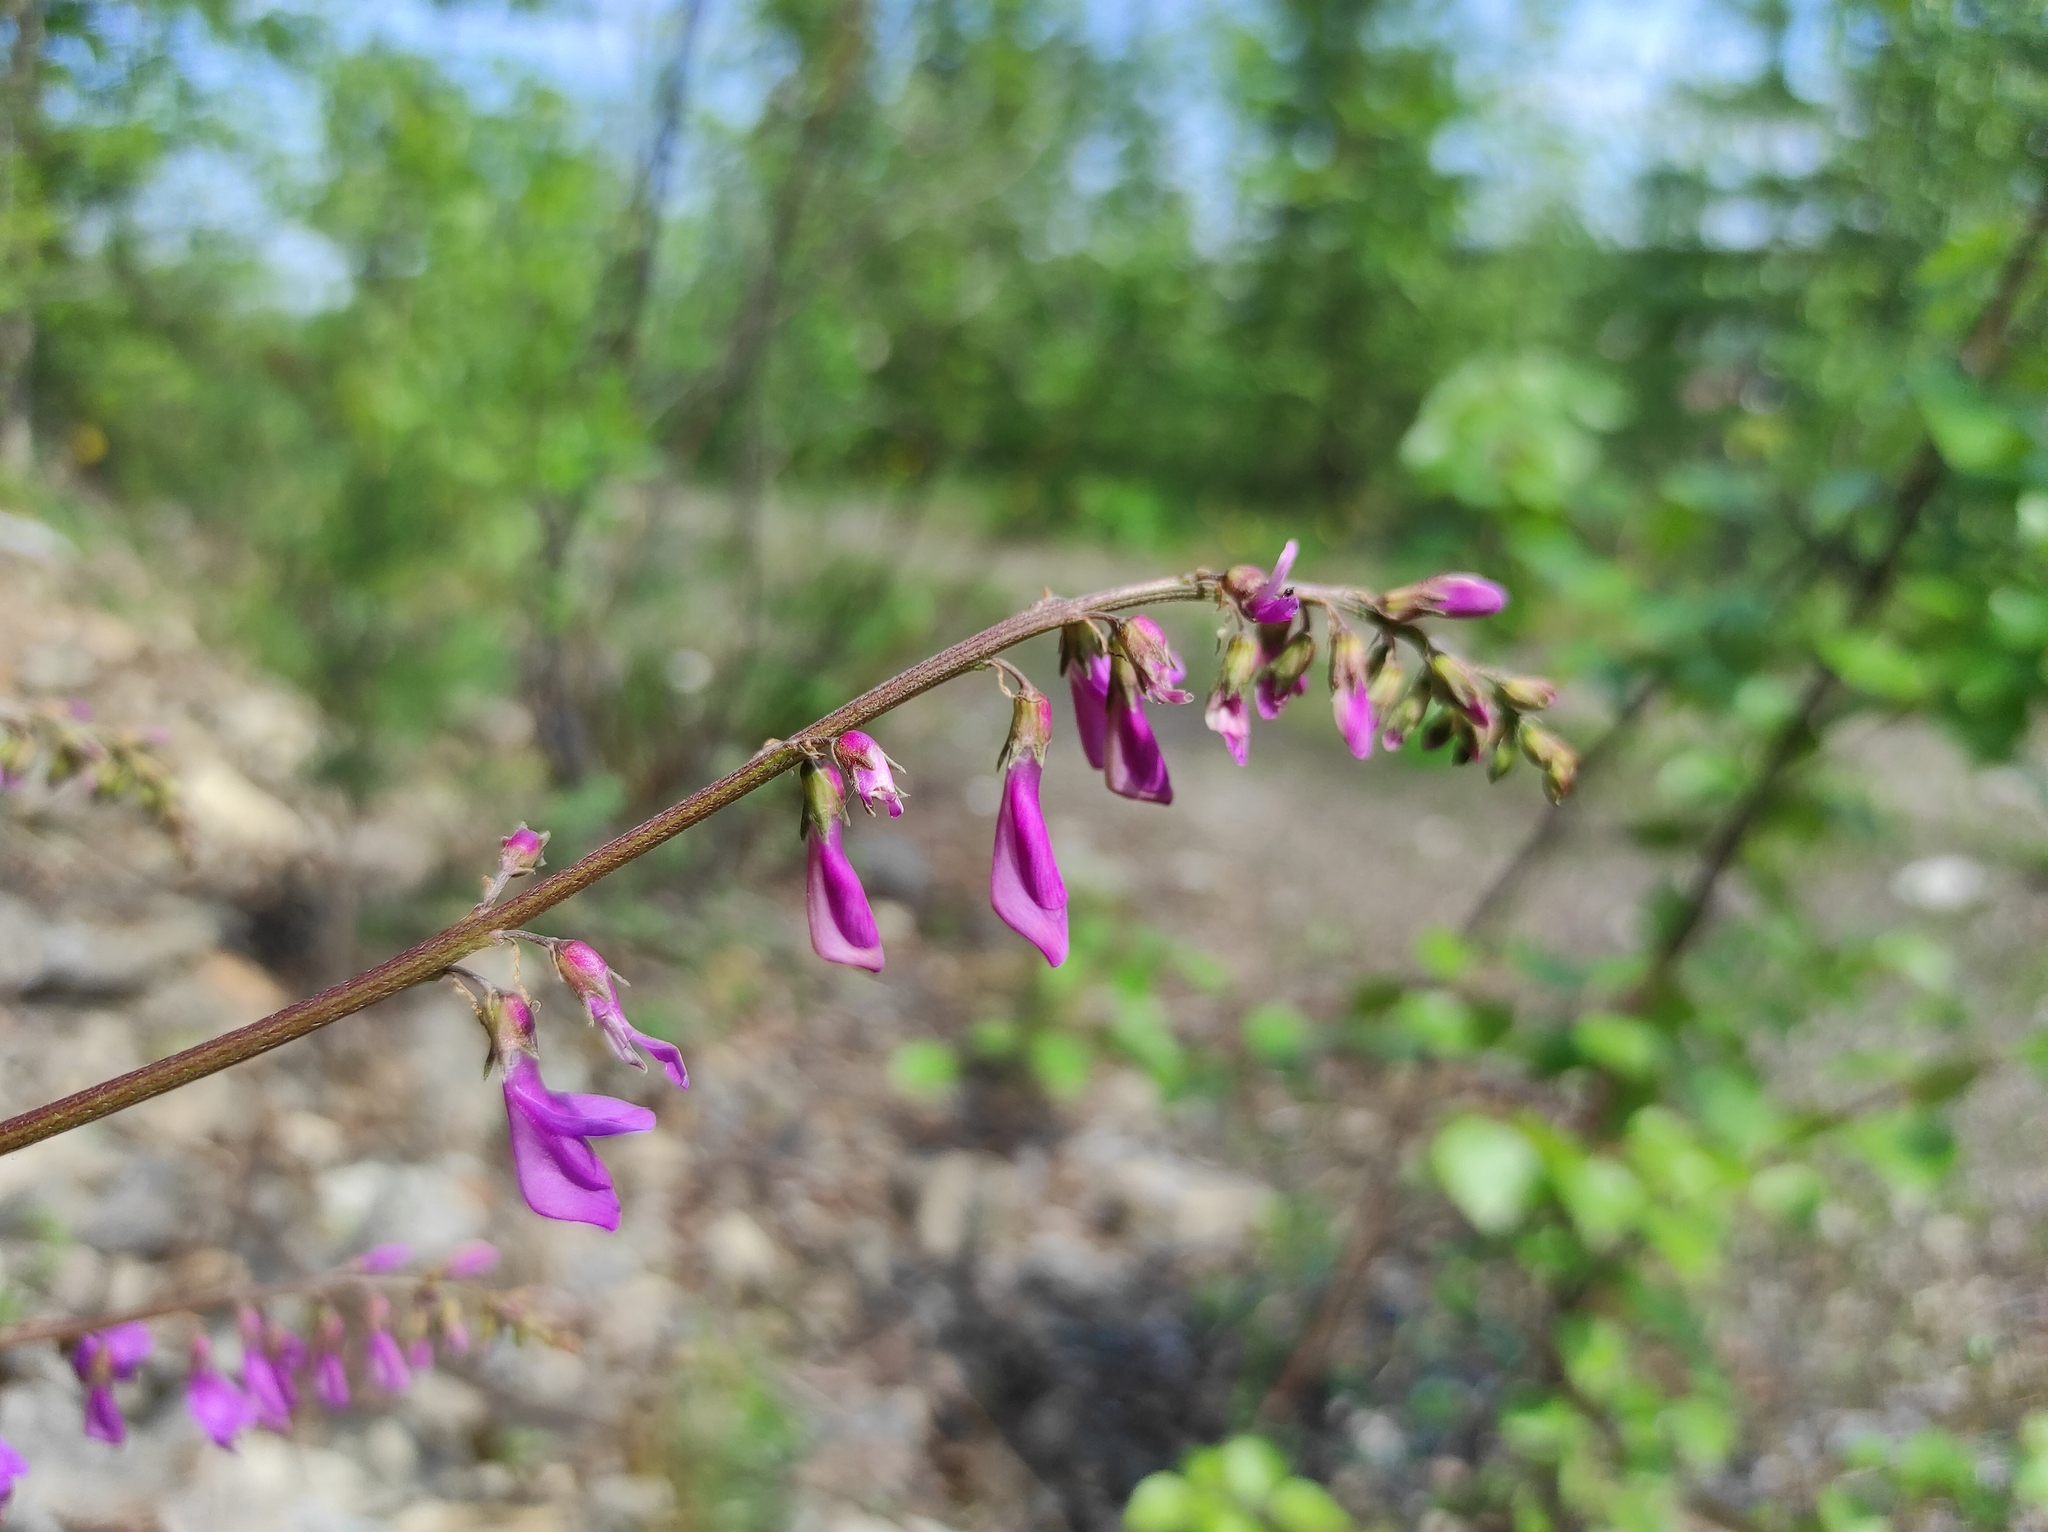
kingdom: Plantae
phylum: Tracheophyta
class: Magnoliopsida
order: Fabales
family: Fabaceae
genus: Hedysarum
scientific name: Hedysarum branthii
